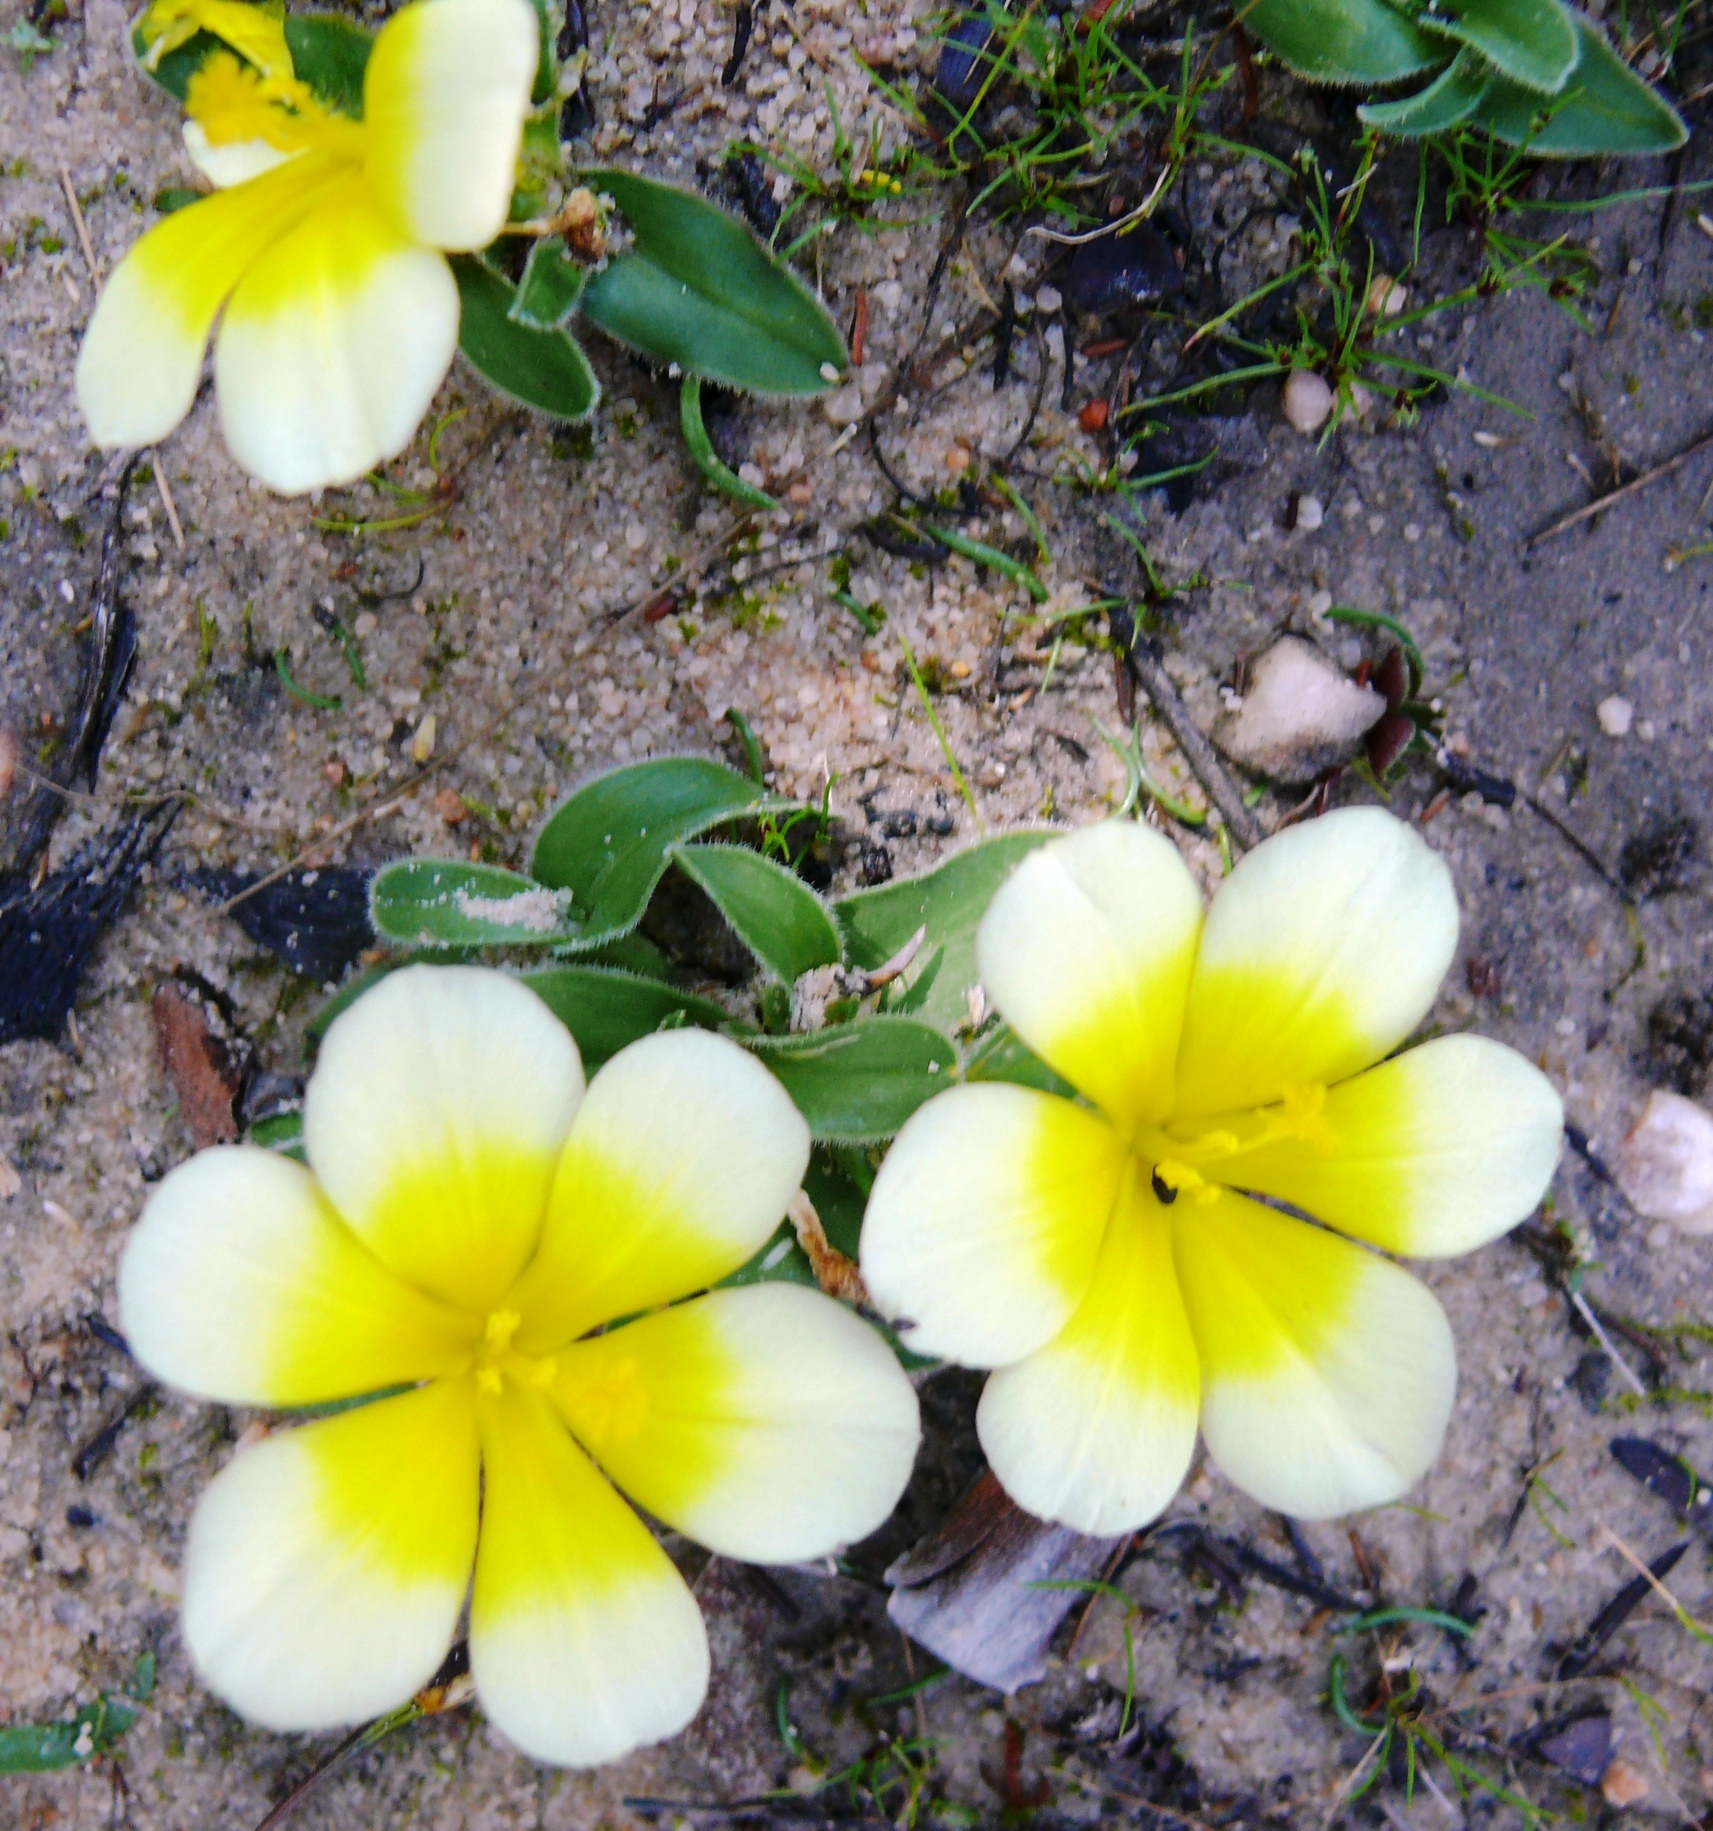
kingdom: Plantae
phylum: Tracheophyta
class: Liliopsida
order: Asparagales
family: Iridaceae
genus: Moraea
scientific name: Moraea luteoalba
